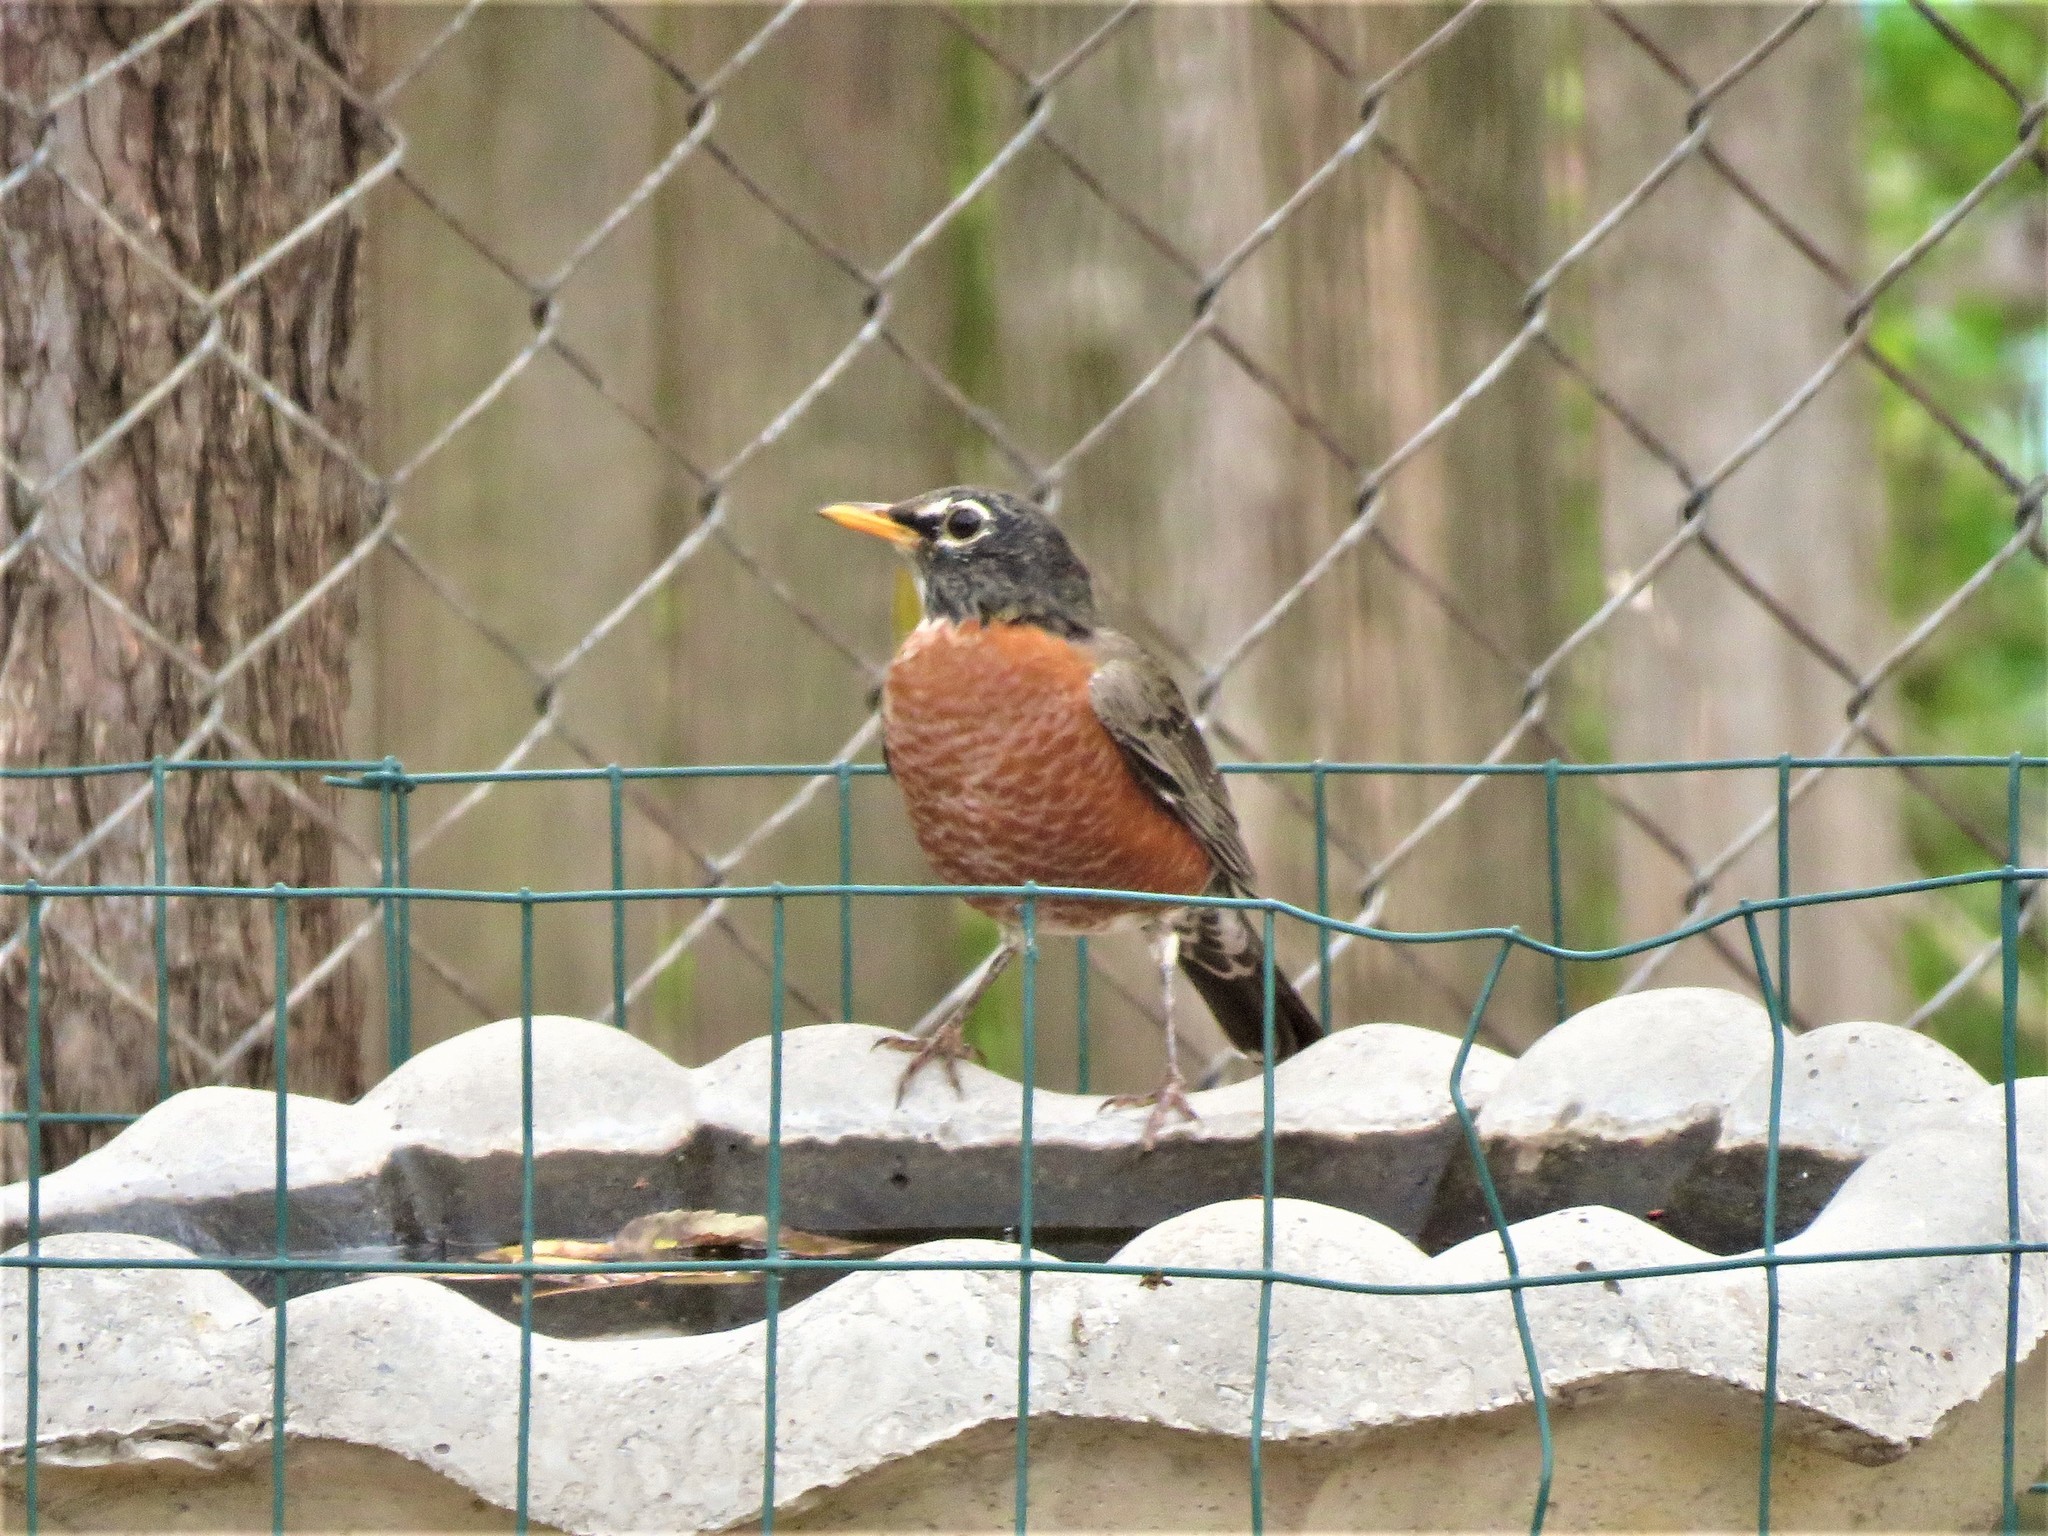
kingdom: Animalia
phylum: Chordata
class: Aves
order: Passeriformes
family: Turdidae
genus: Turdus
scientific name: Turdus migratorius
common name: American robin
